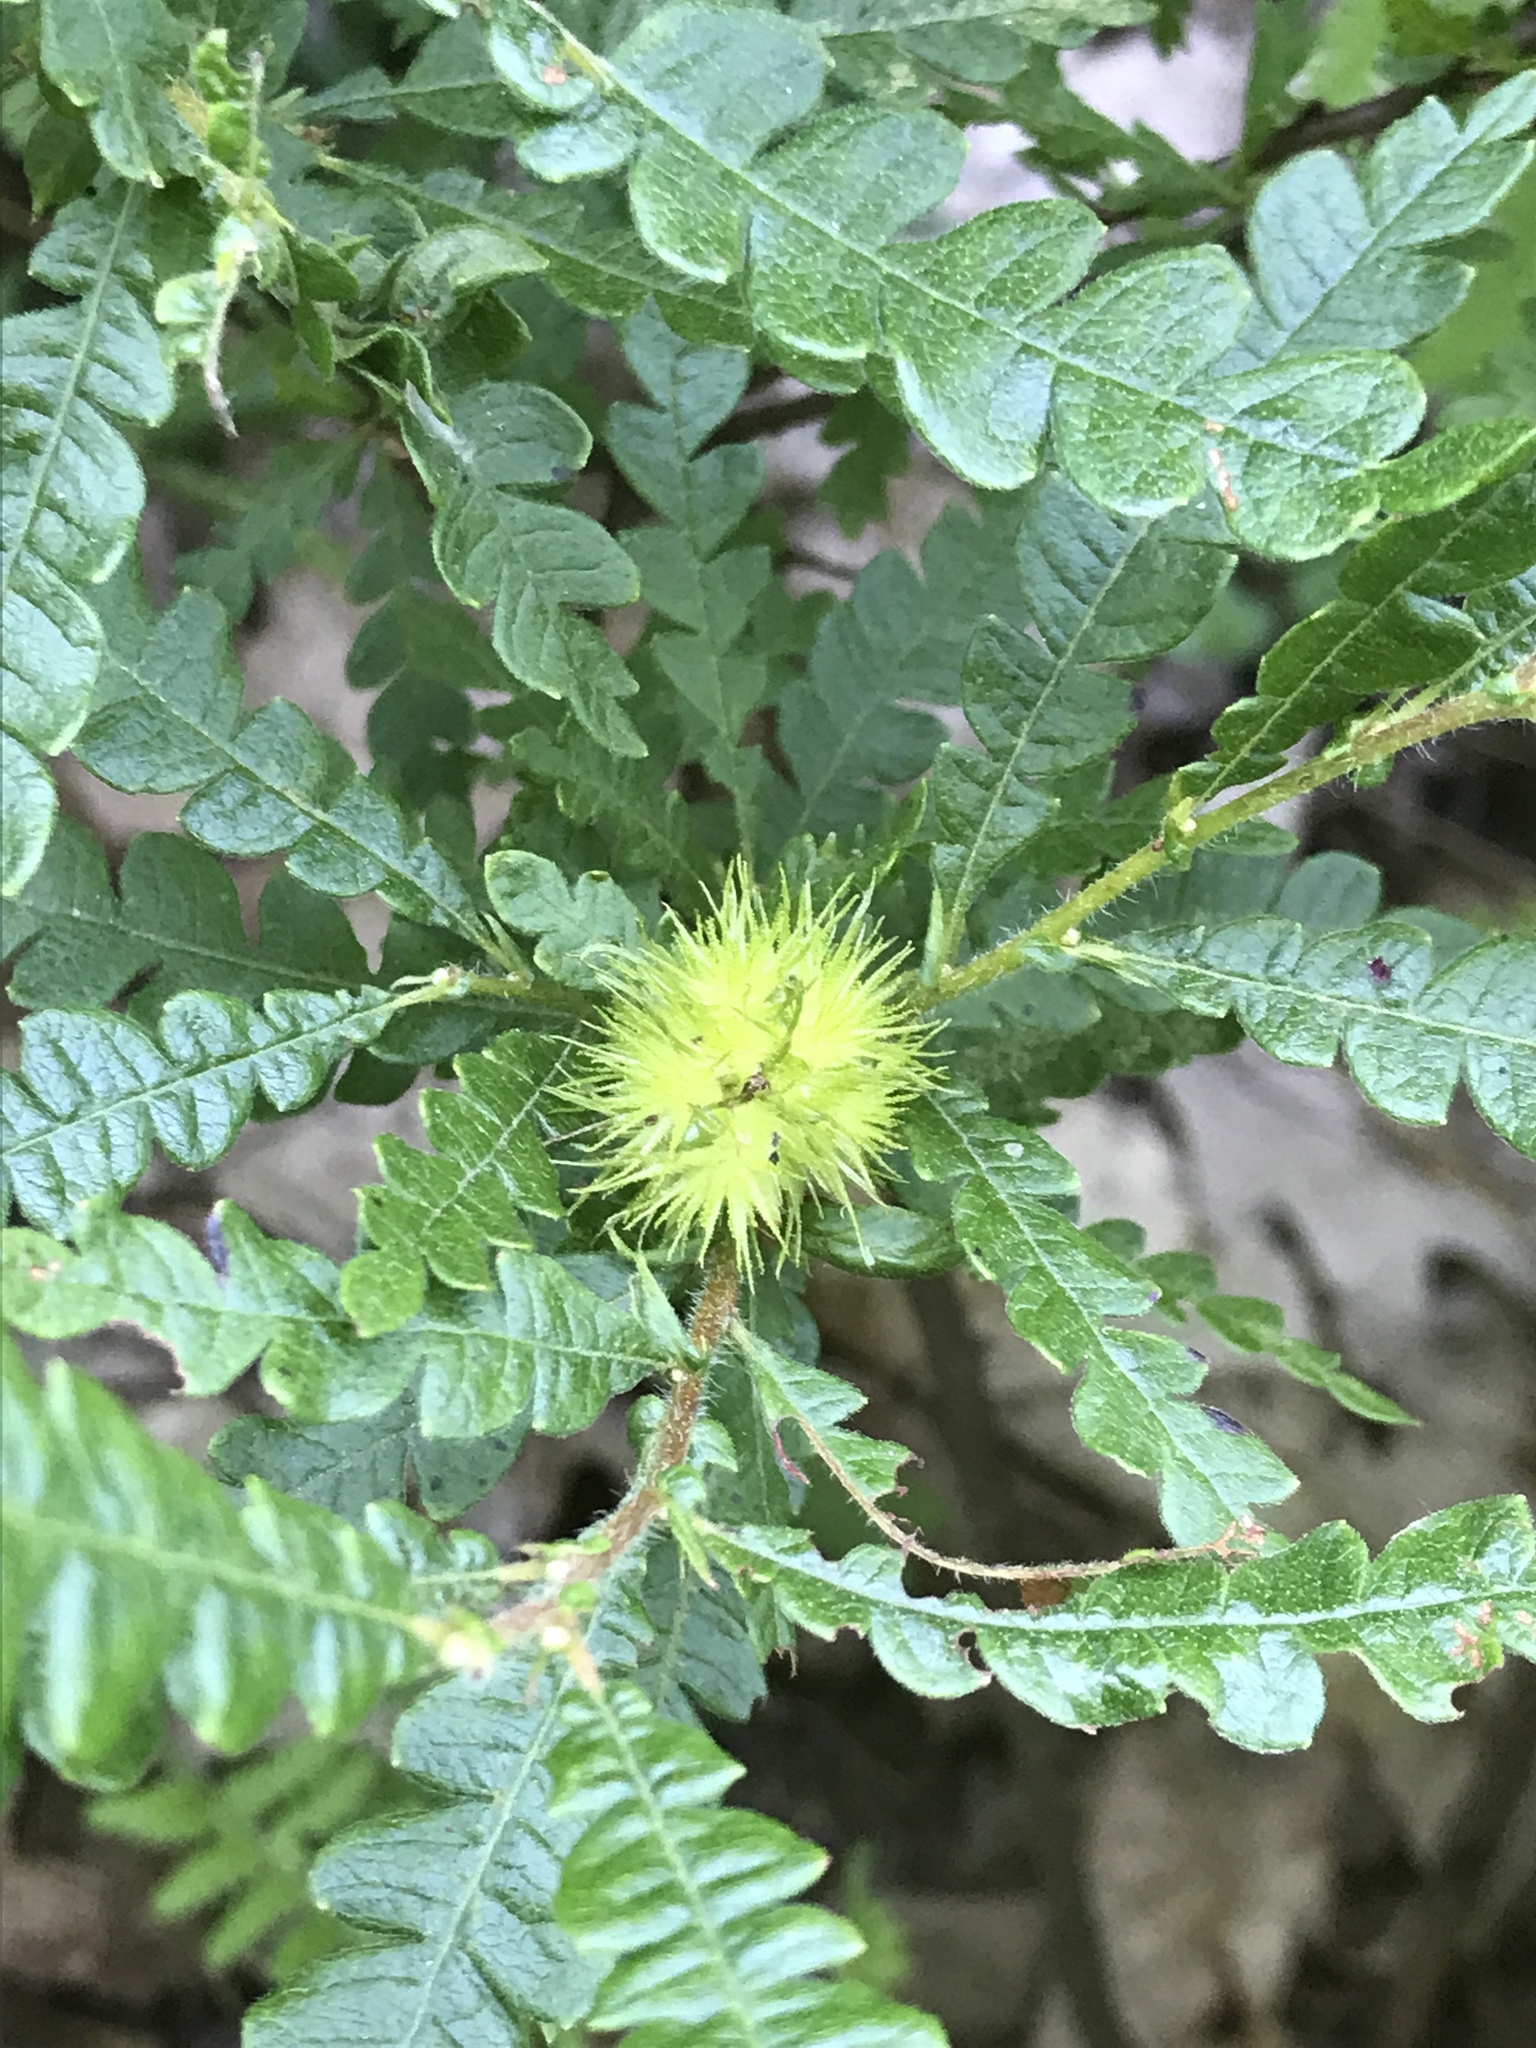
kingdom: Plantae
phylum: Tracheophyta
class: Magnoliopsida
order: Fagales
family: Myricaceae
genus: Comptonia
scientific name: Comptonia peregrina
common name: Sweet-fern
